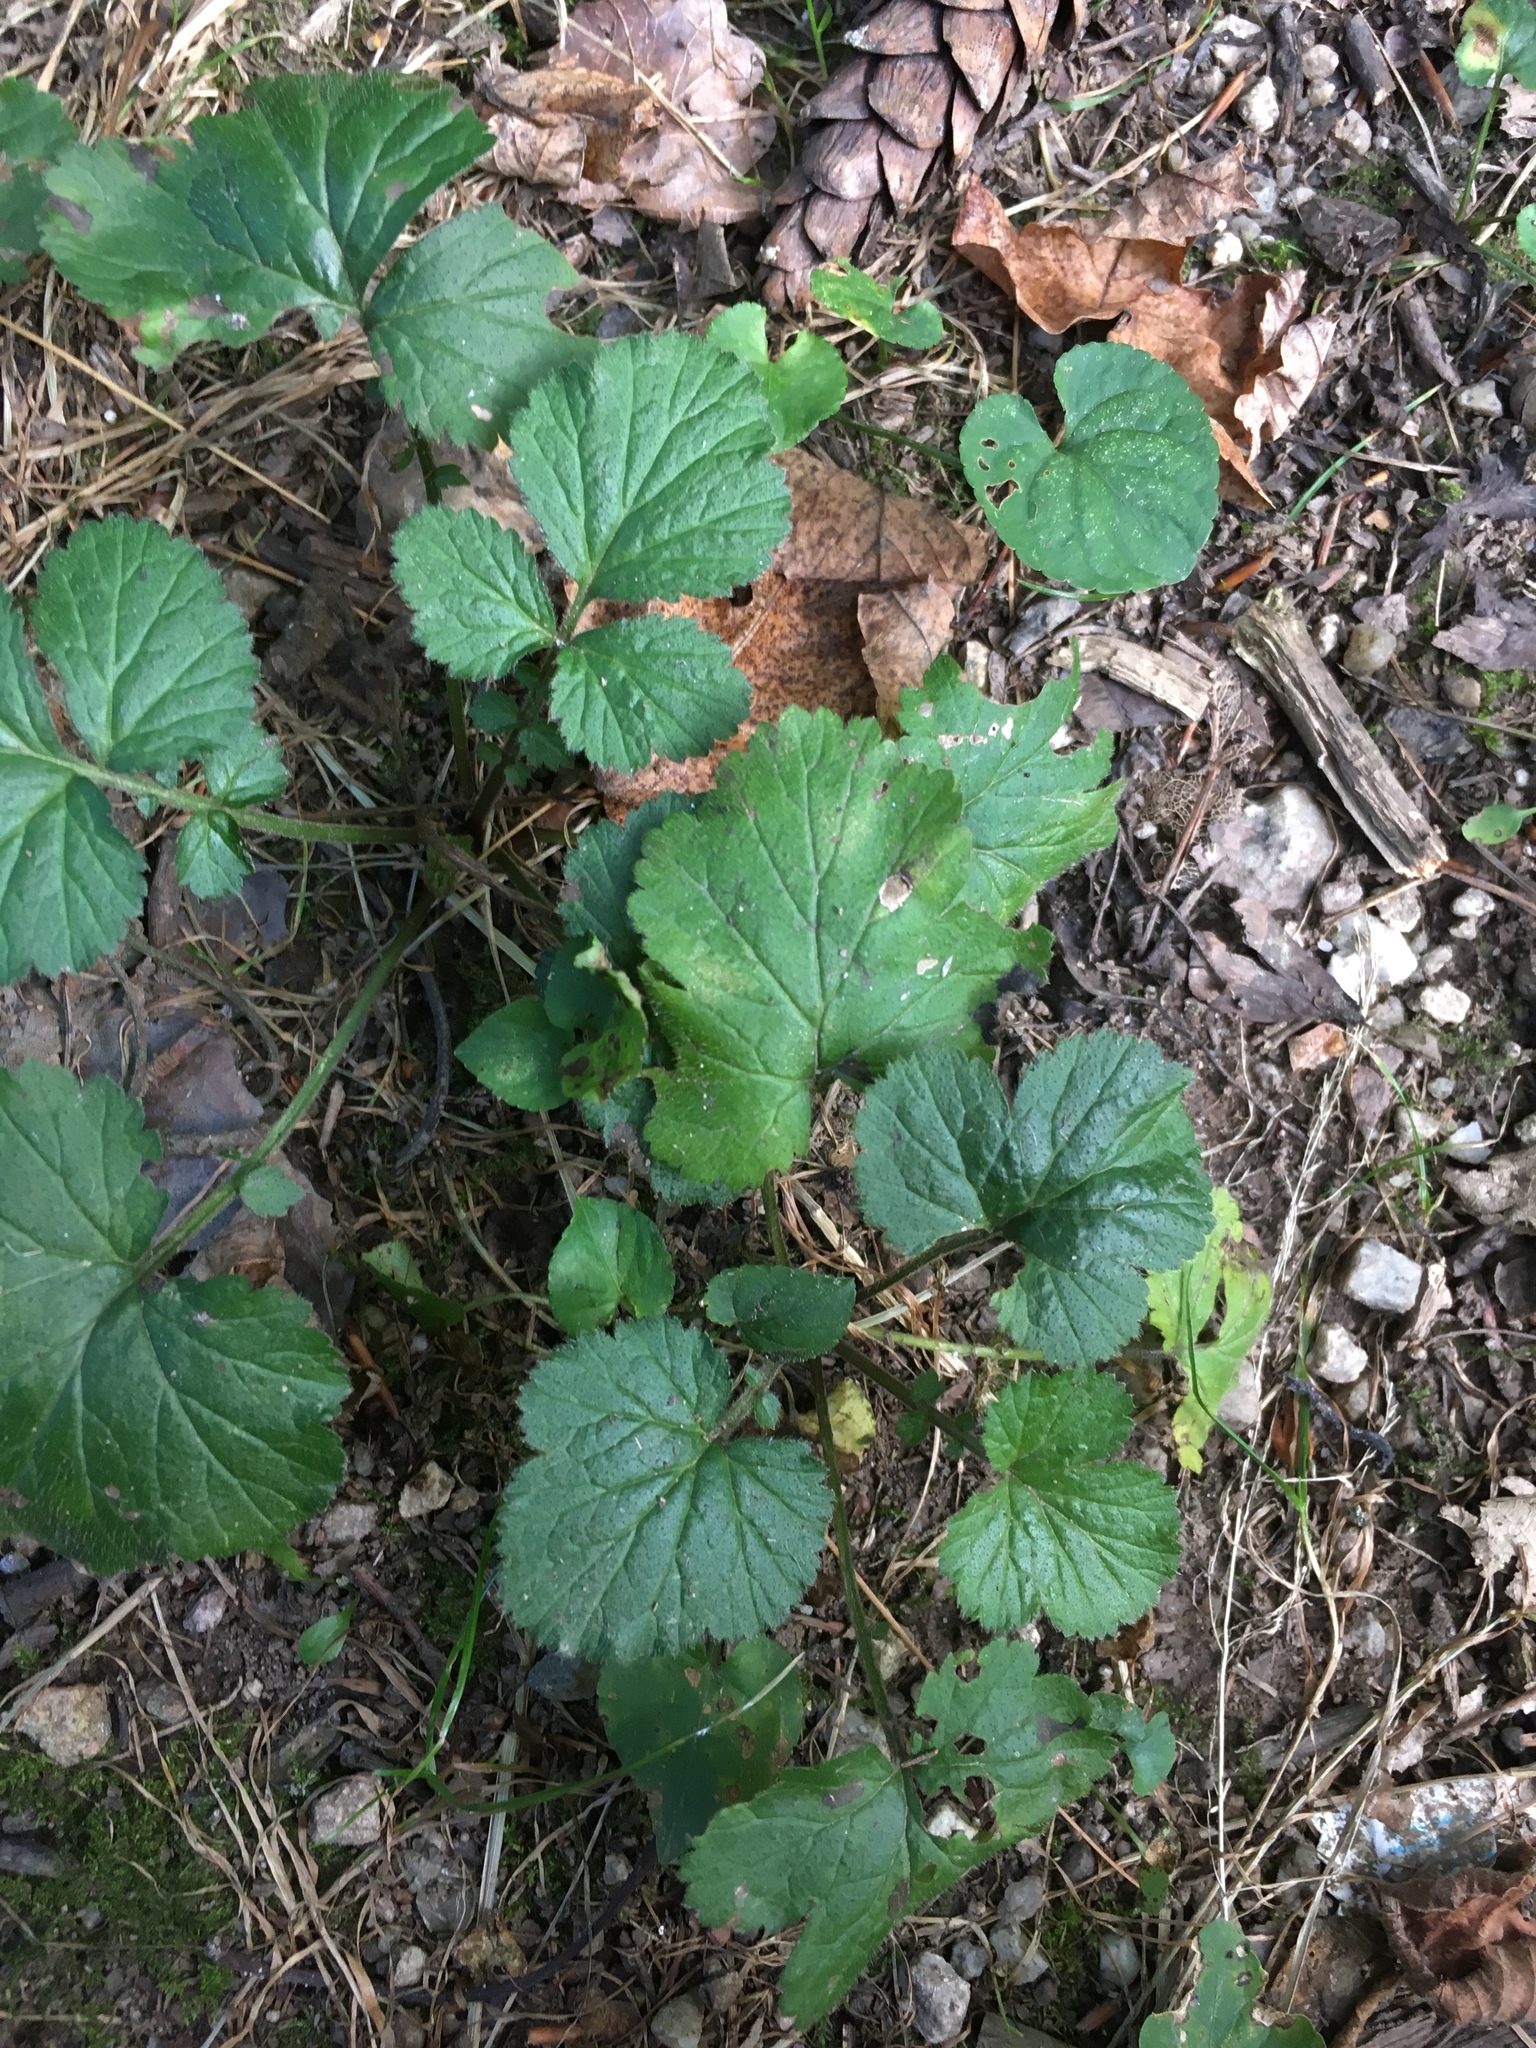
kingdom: Plantae
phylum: Tracheophyta
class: Magnoliopsida
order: Rosales
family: Rosaceae
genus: Geum
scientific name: Geum urbanum
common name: Wood avens
